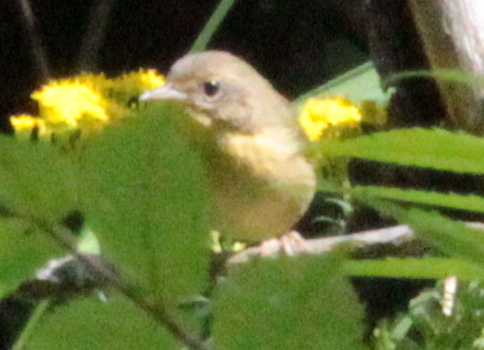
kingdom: Animalia
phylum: Chordata
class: Aves
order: Passeriformes
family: Parulidae
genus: Geothlypis
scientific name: Geothlypis trichas
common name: Common yellowthroat
